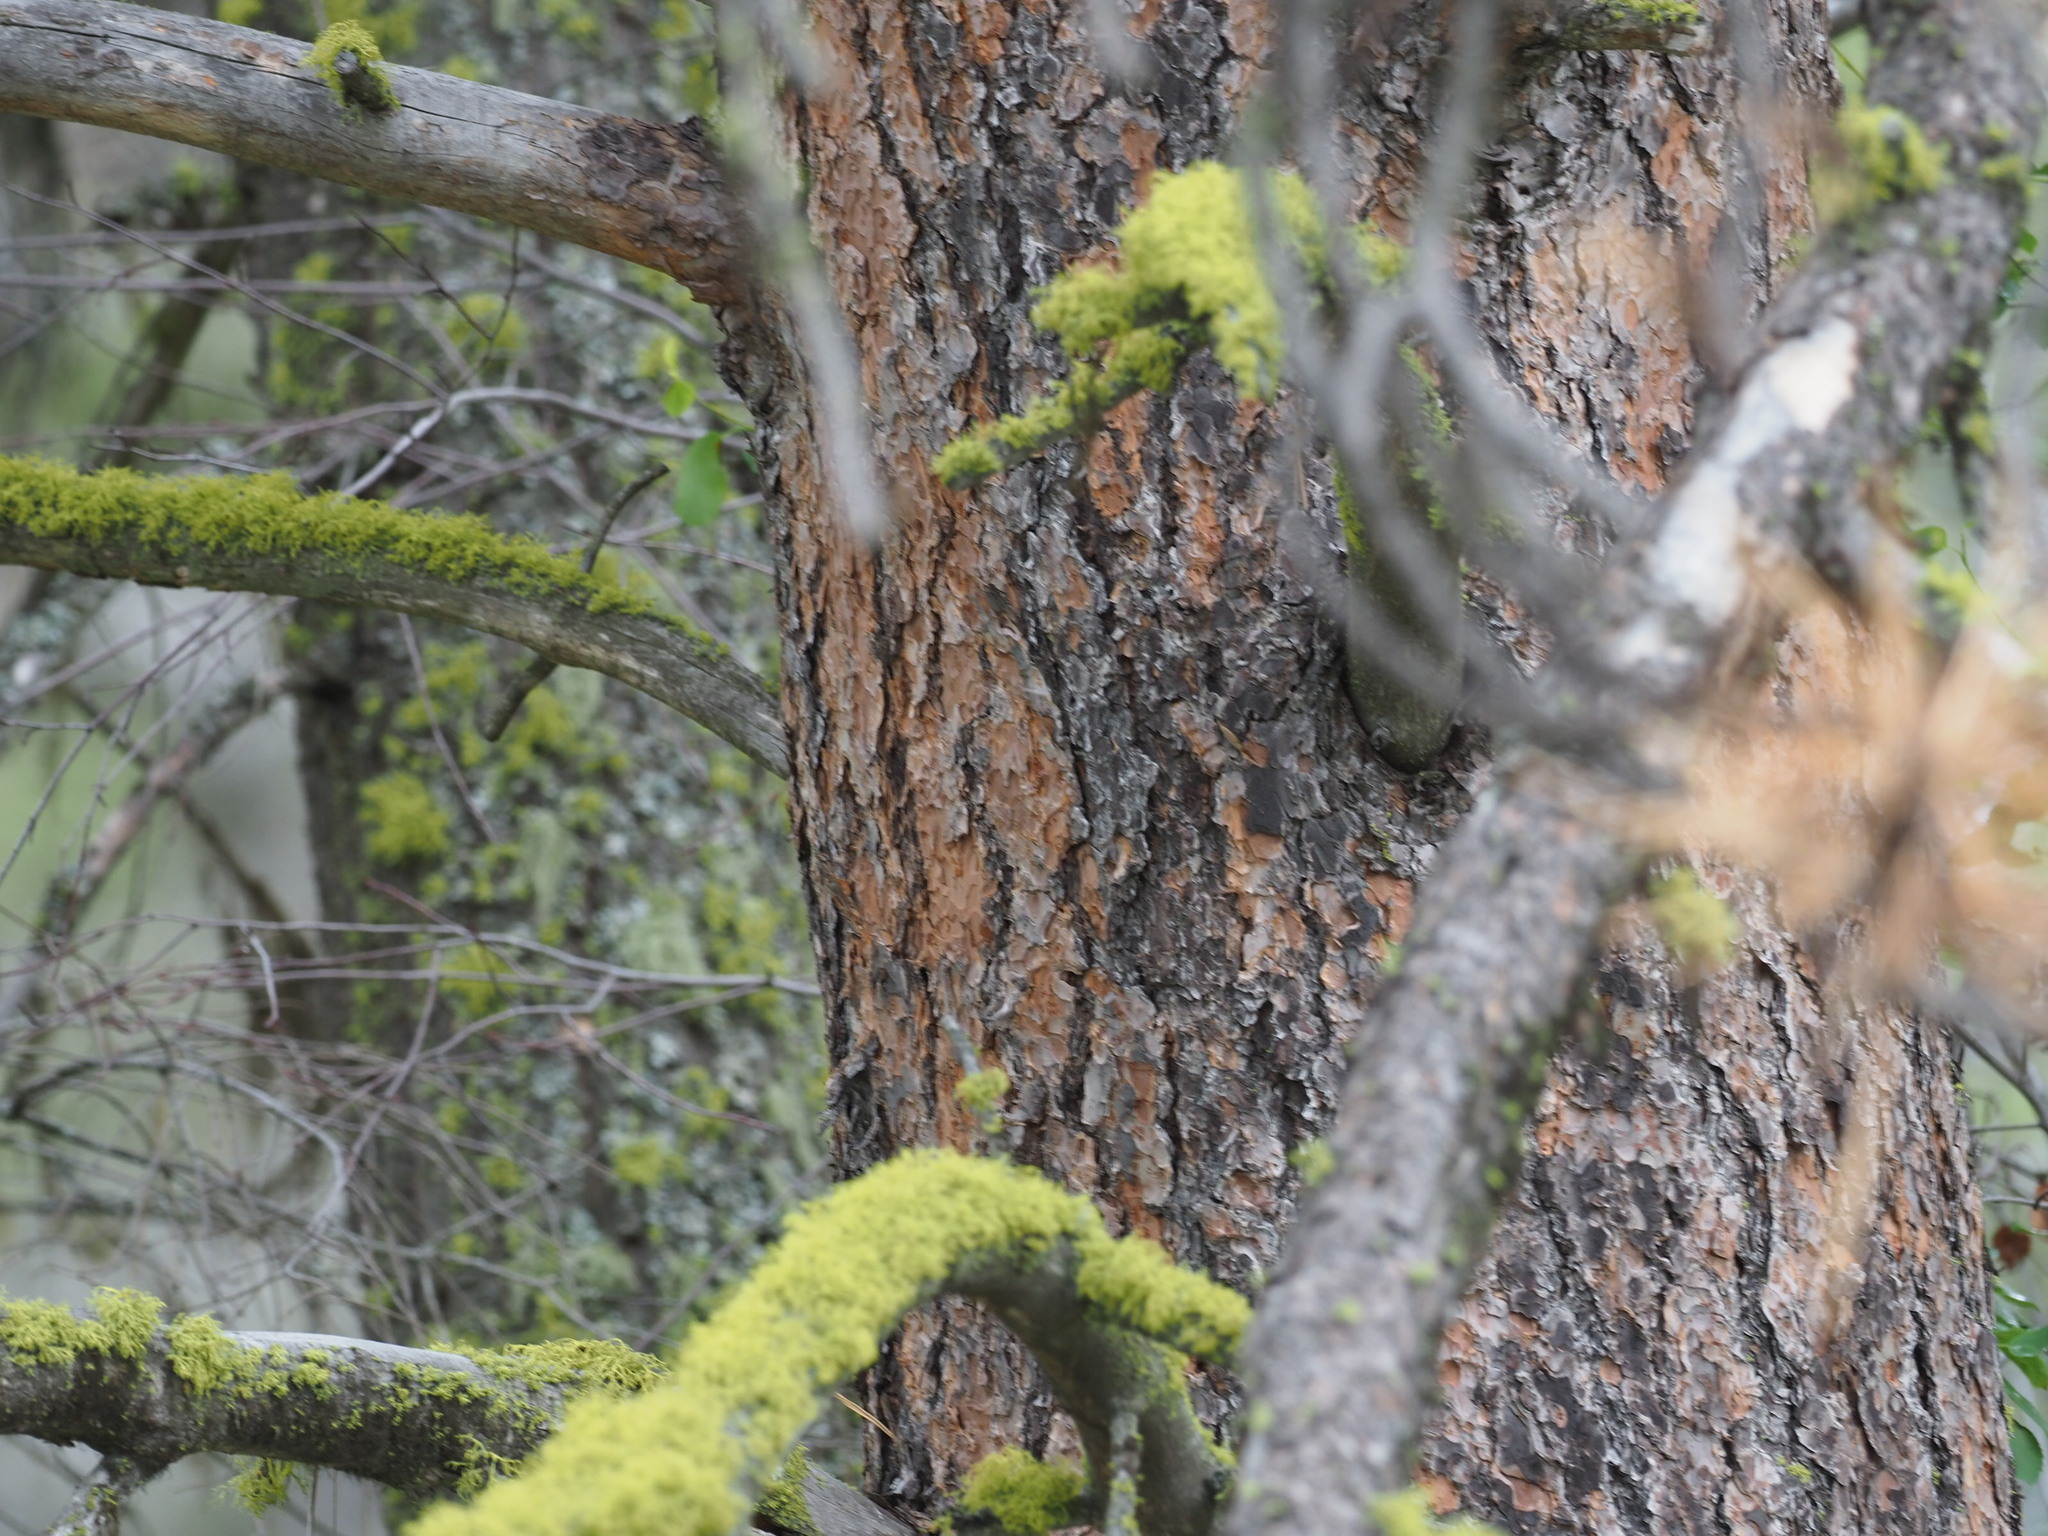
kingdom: Plantae
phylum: Tracheophyta
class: Pinopsida
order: Pinales
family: Pinaceae
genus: Pinus
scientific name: Pinus ponderosa
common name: Western yellow-pine
